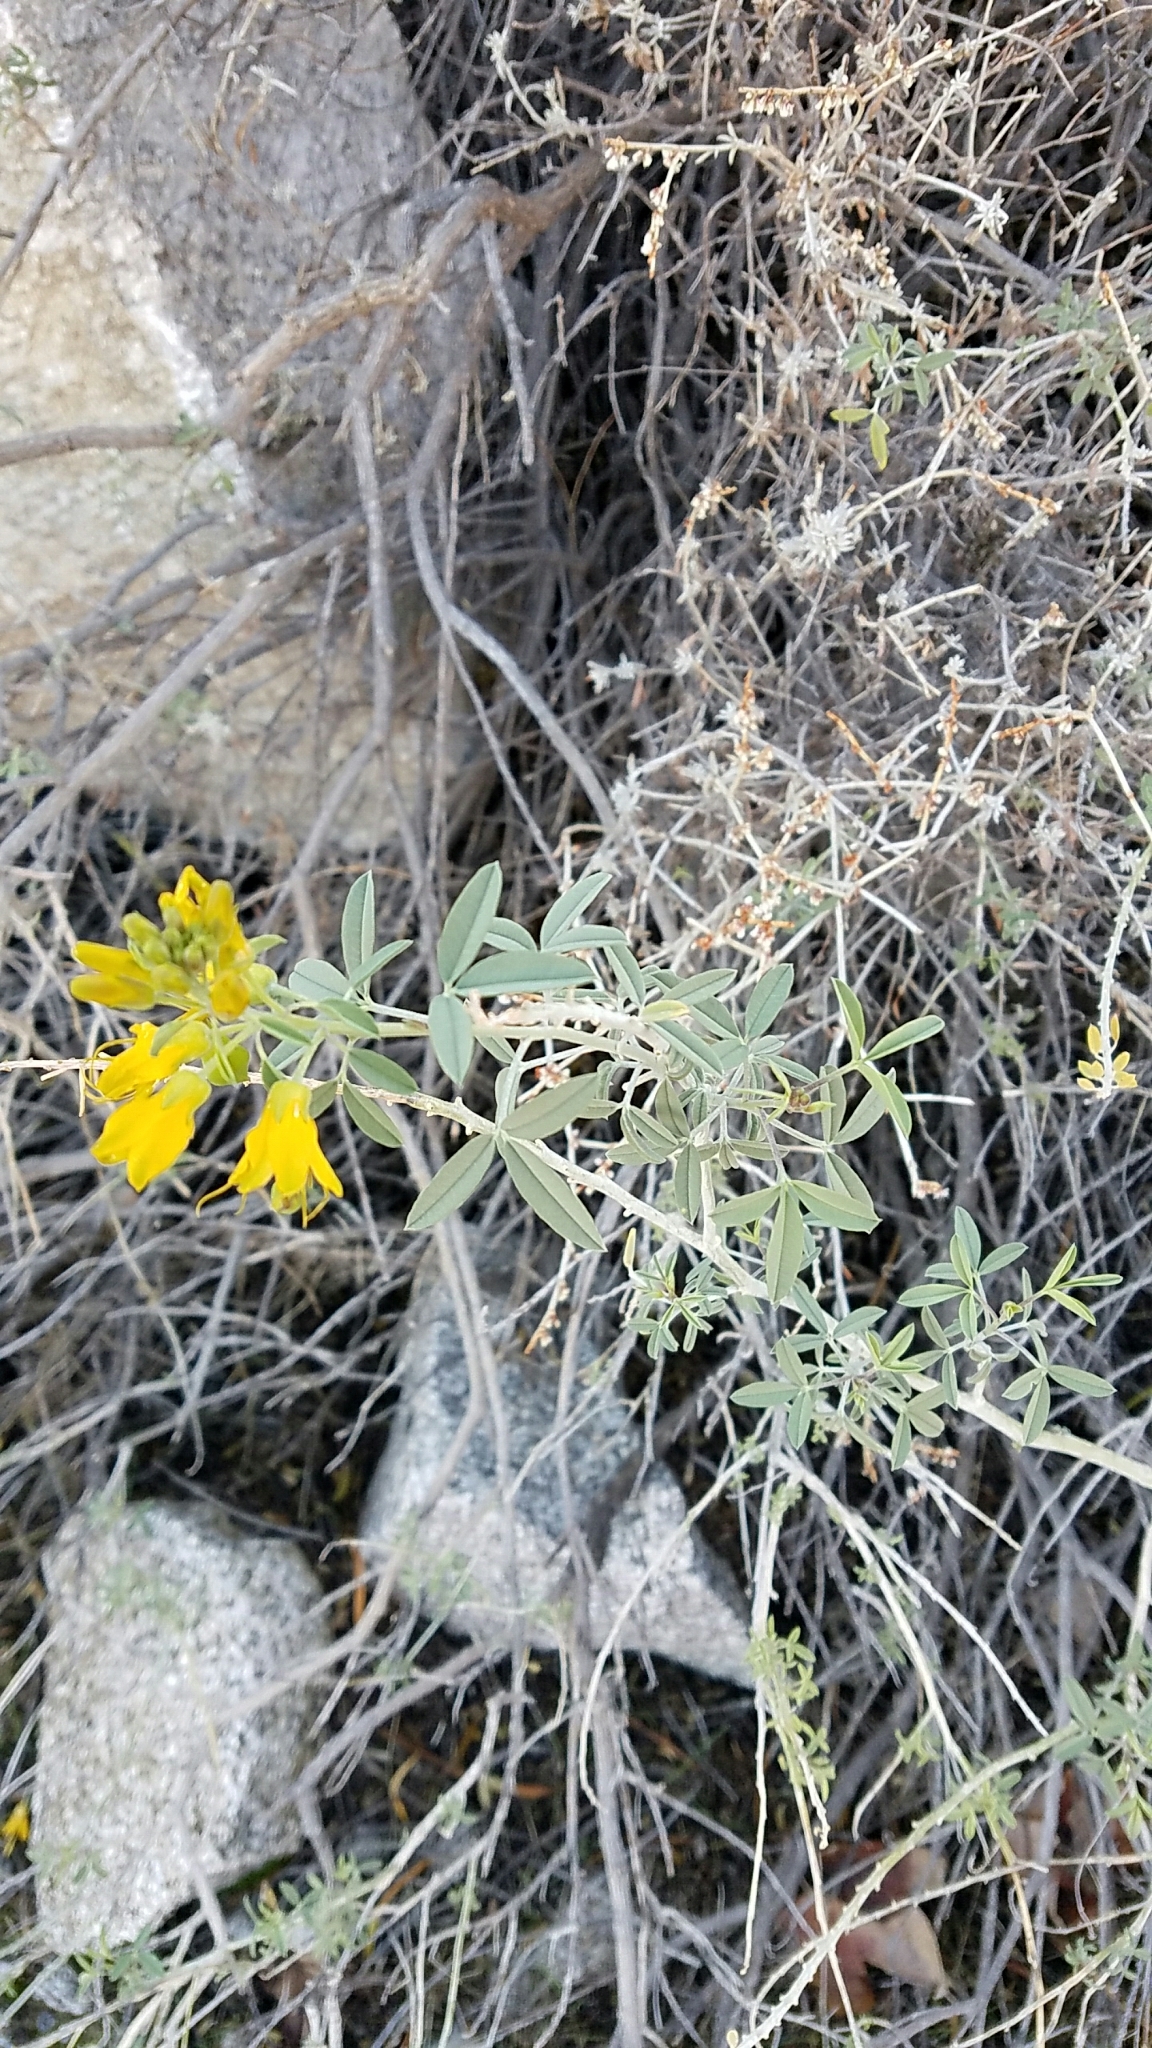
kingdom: Plantae
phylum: Tracheophyta
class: Magnoliopsida
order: Brassicales
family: Cleomaceae
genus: Cleomella
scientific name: Cleomella arborea
